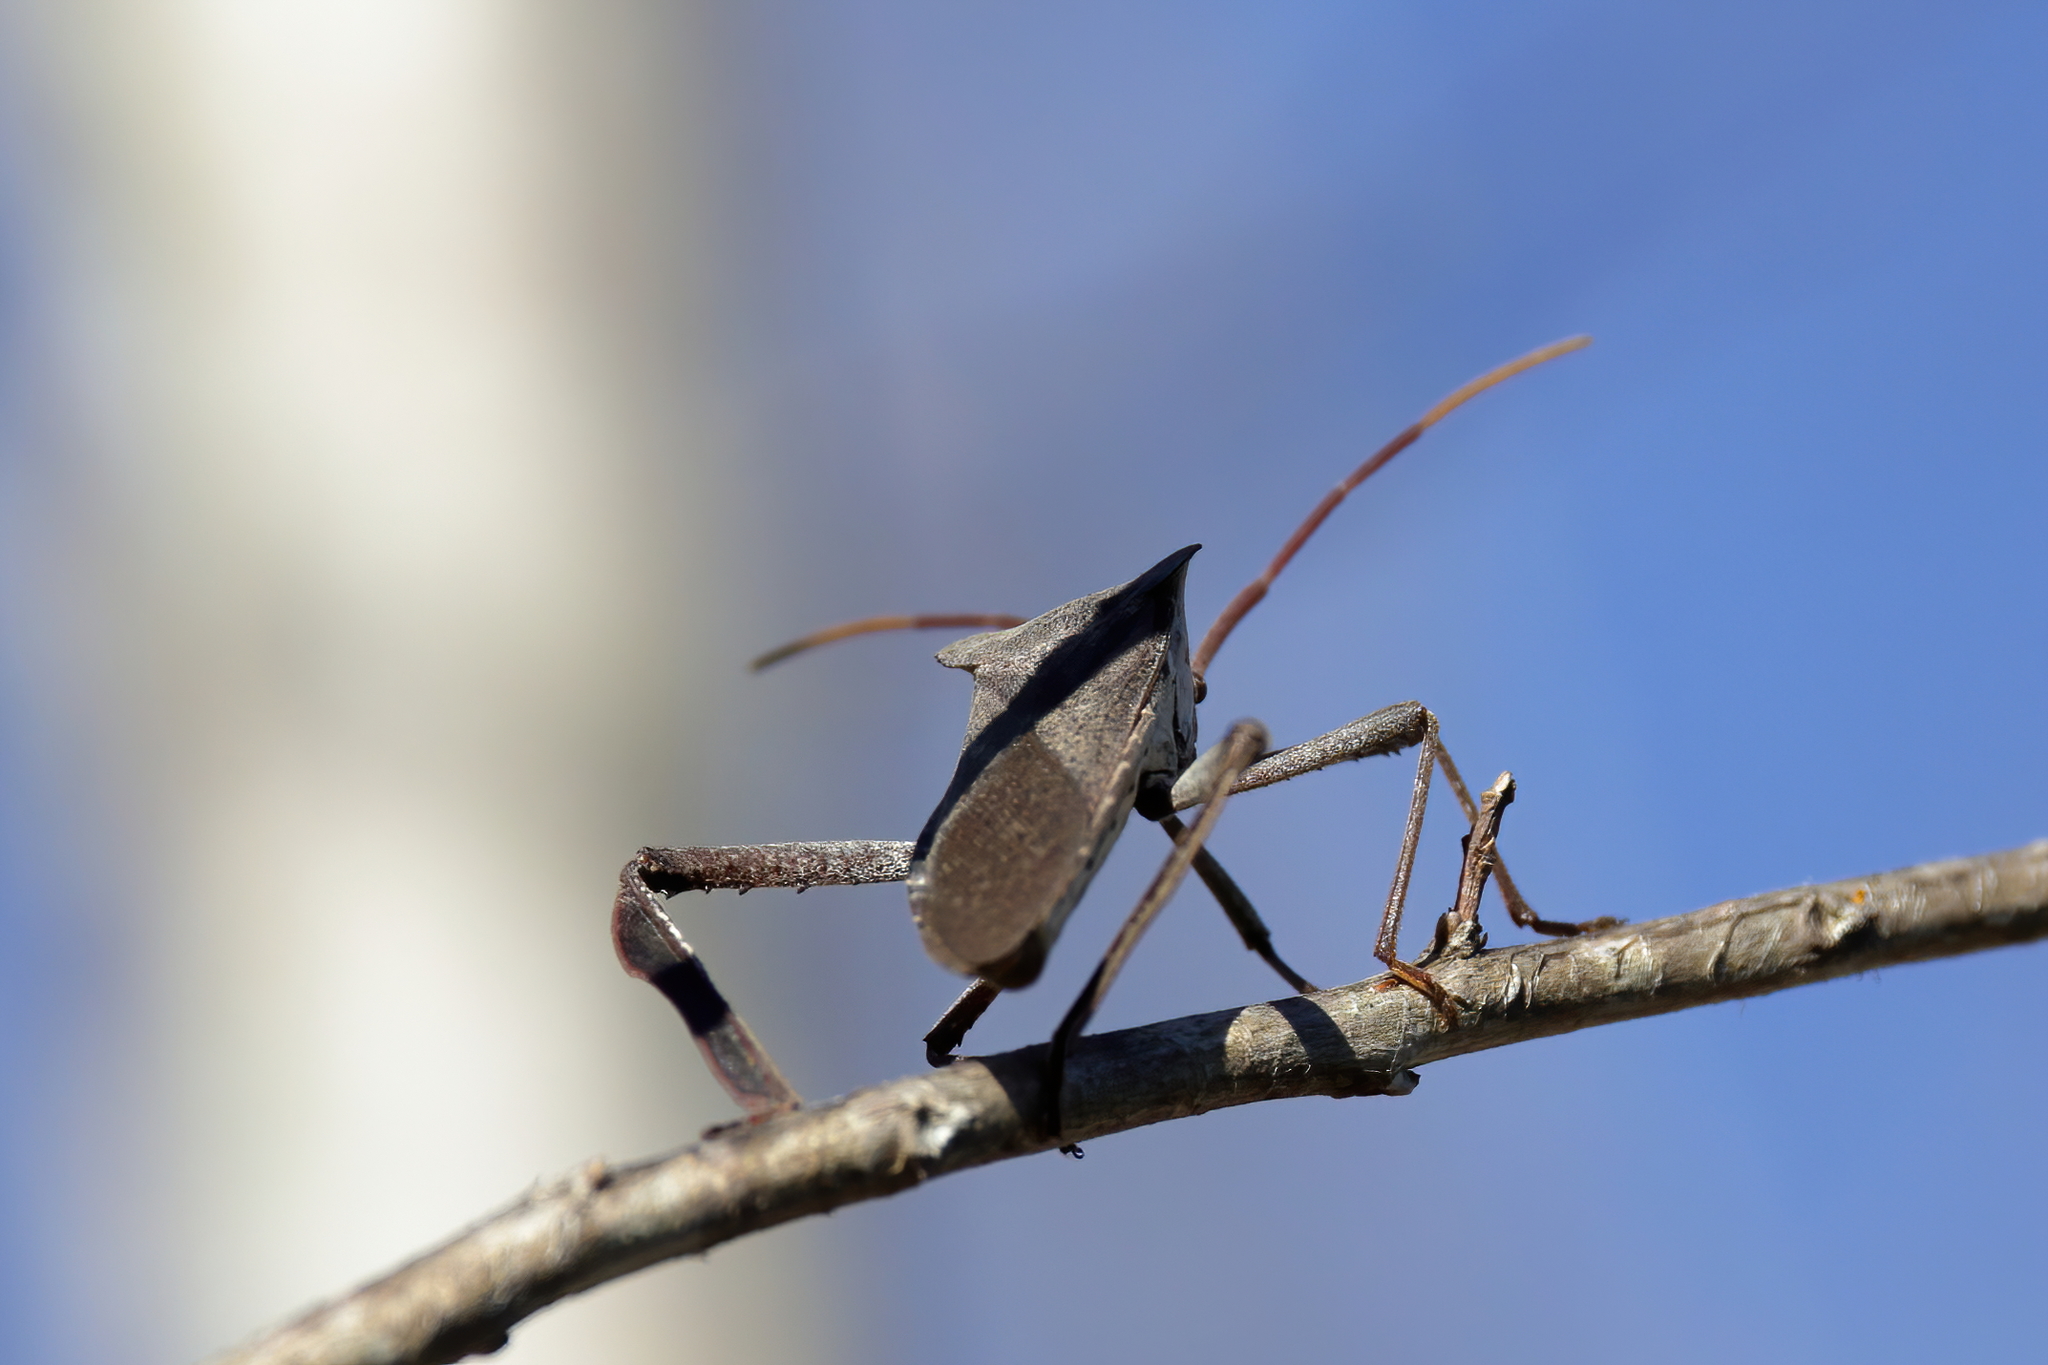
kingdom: Animalia
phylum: Arthropoda
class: Insecta
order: Hemiptera
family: Coreidae
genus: Acanthocephala
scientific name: Acanthocephala declivis
